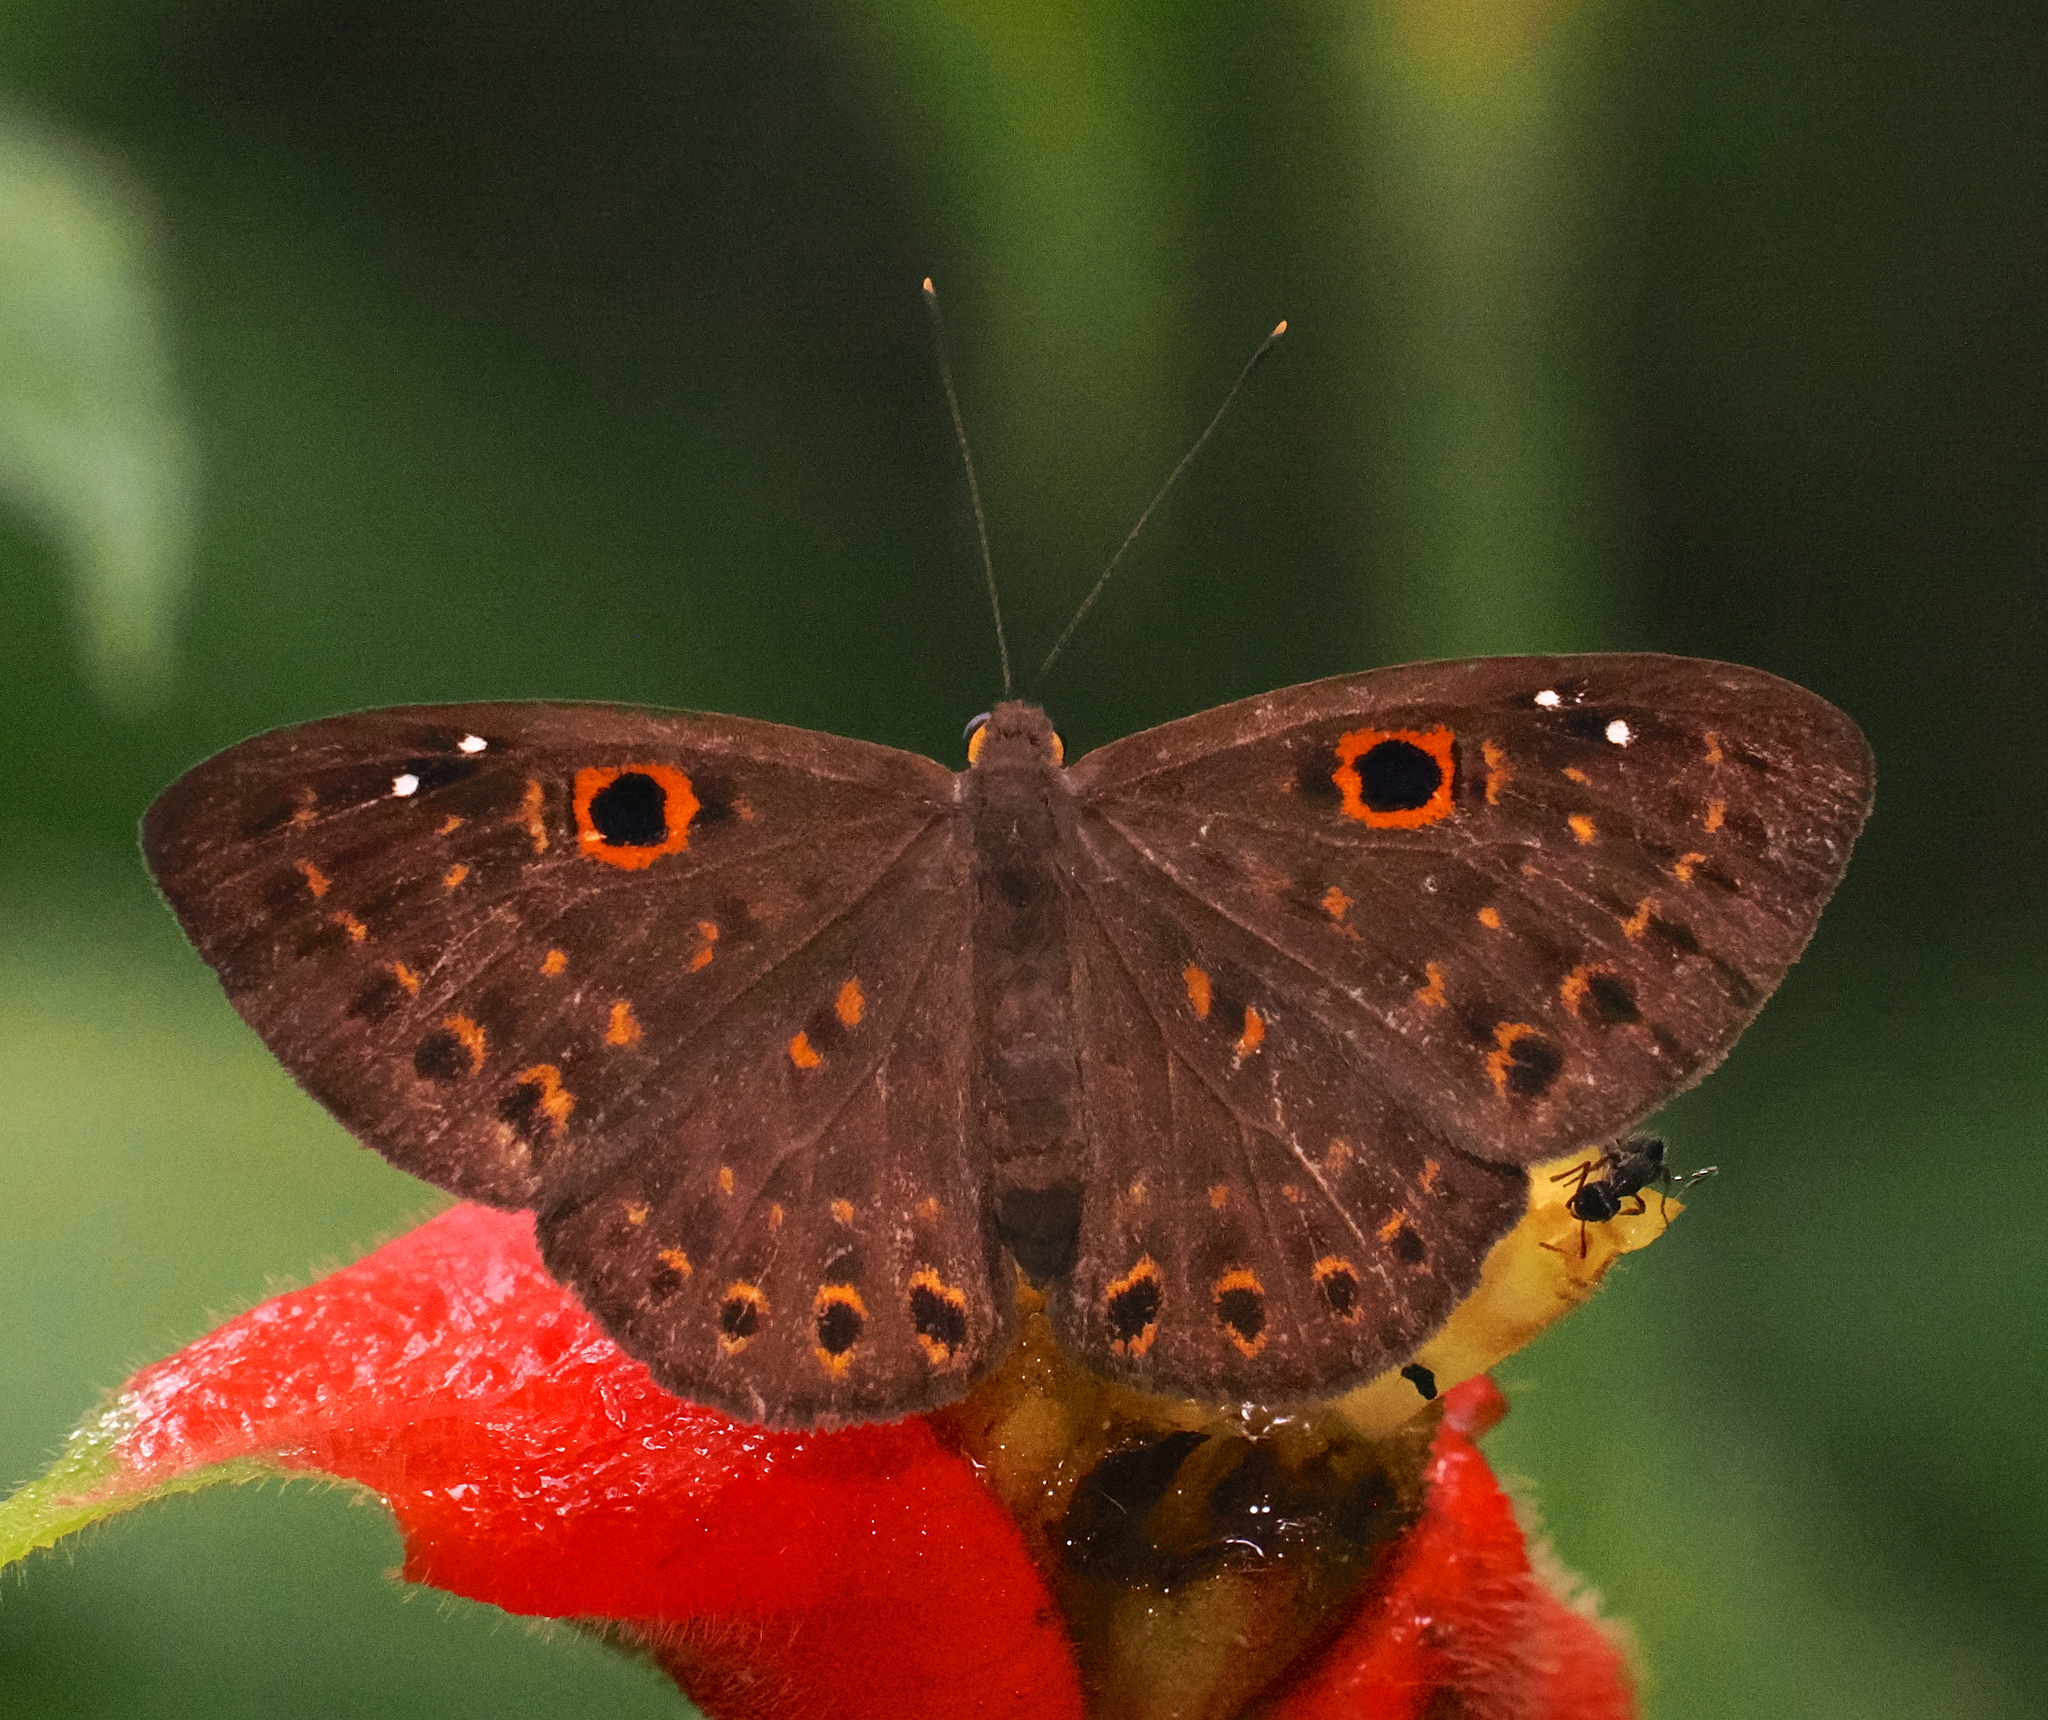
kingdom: Animalia
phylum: Cnidaria
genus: Eurybia
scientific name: Eurybia dardus
